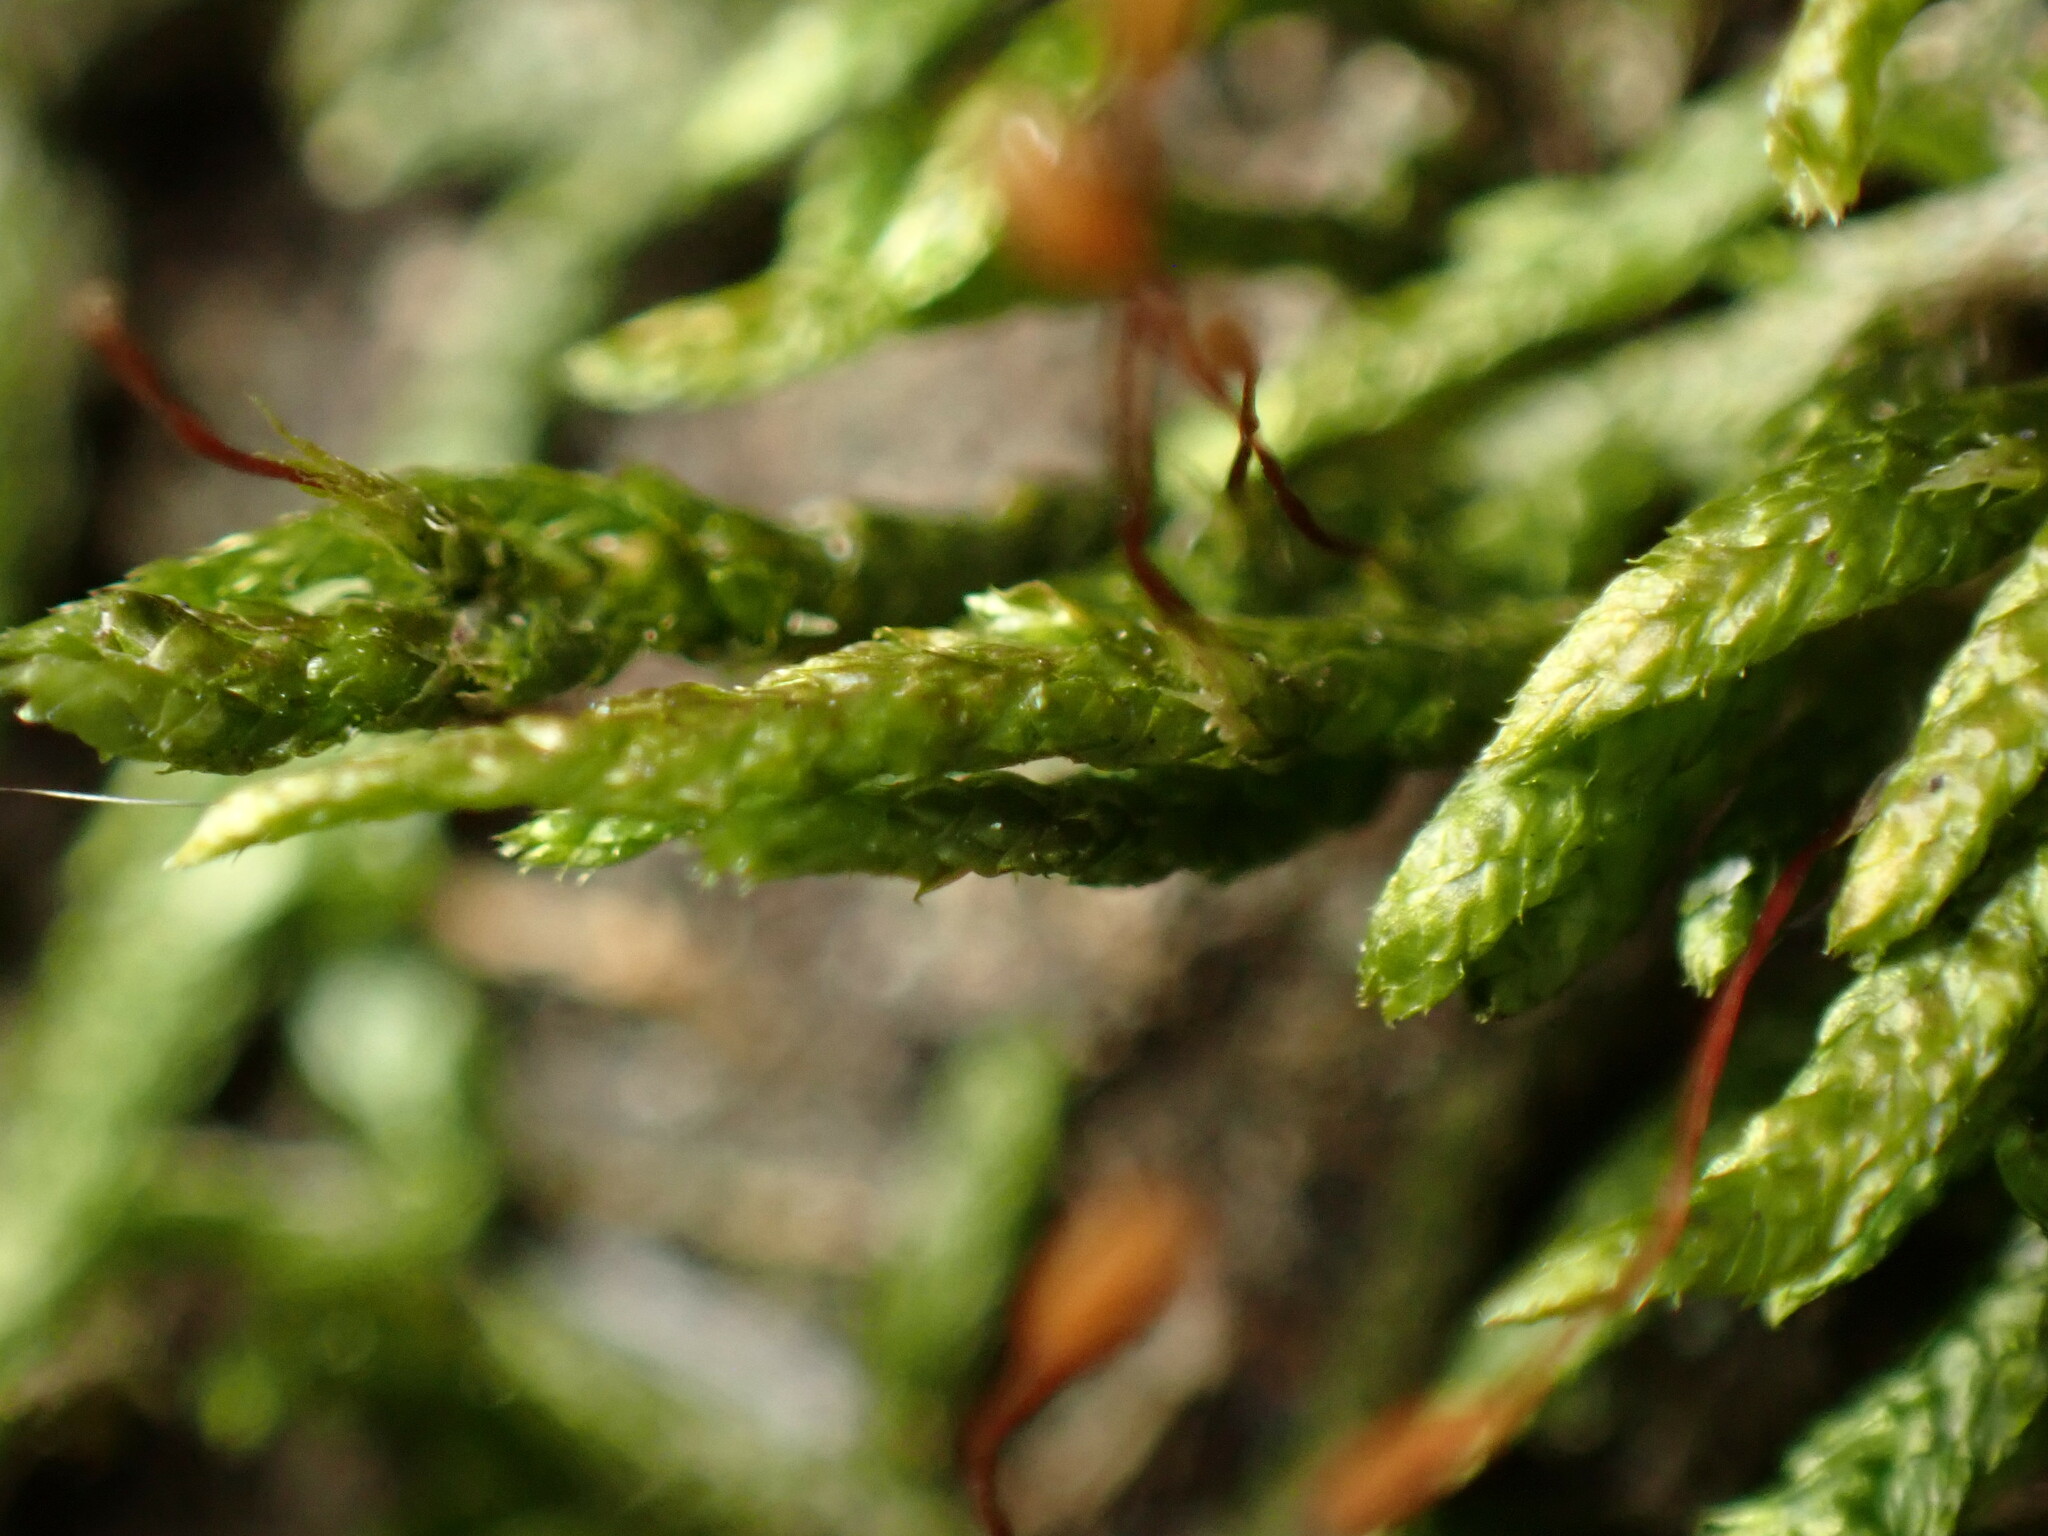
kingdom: Plantae
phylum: Bryophyta
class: Bryopsida
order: Hypnales
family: Entodontaceae
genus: Entodon
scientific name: Entodon cladorrhizans
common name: Flat-stemmed entodon moss
